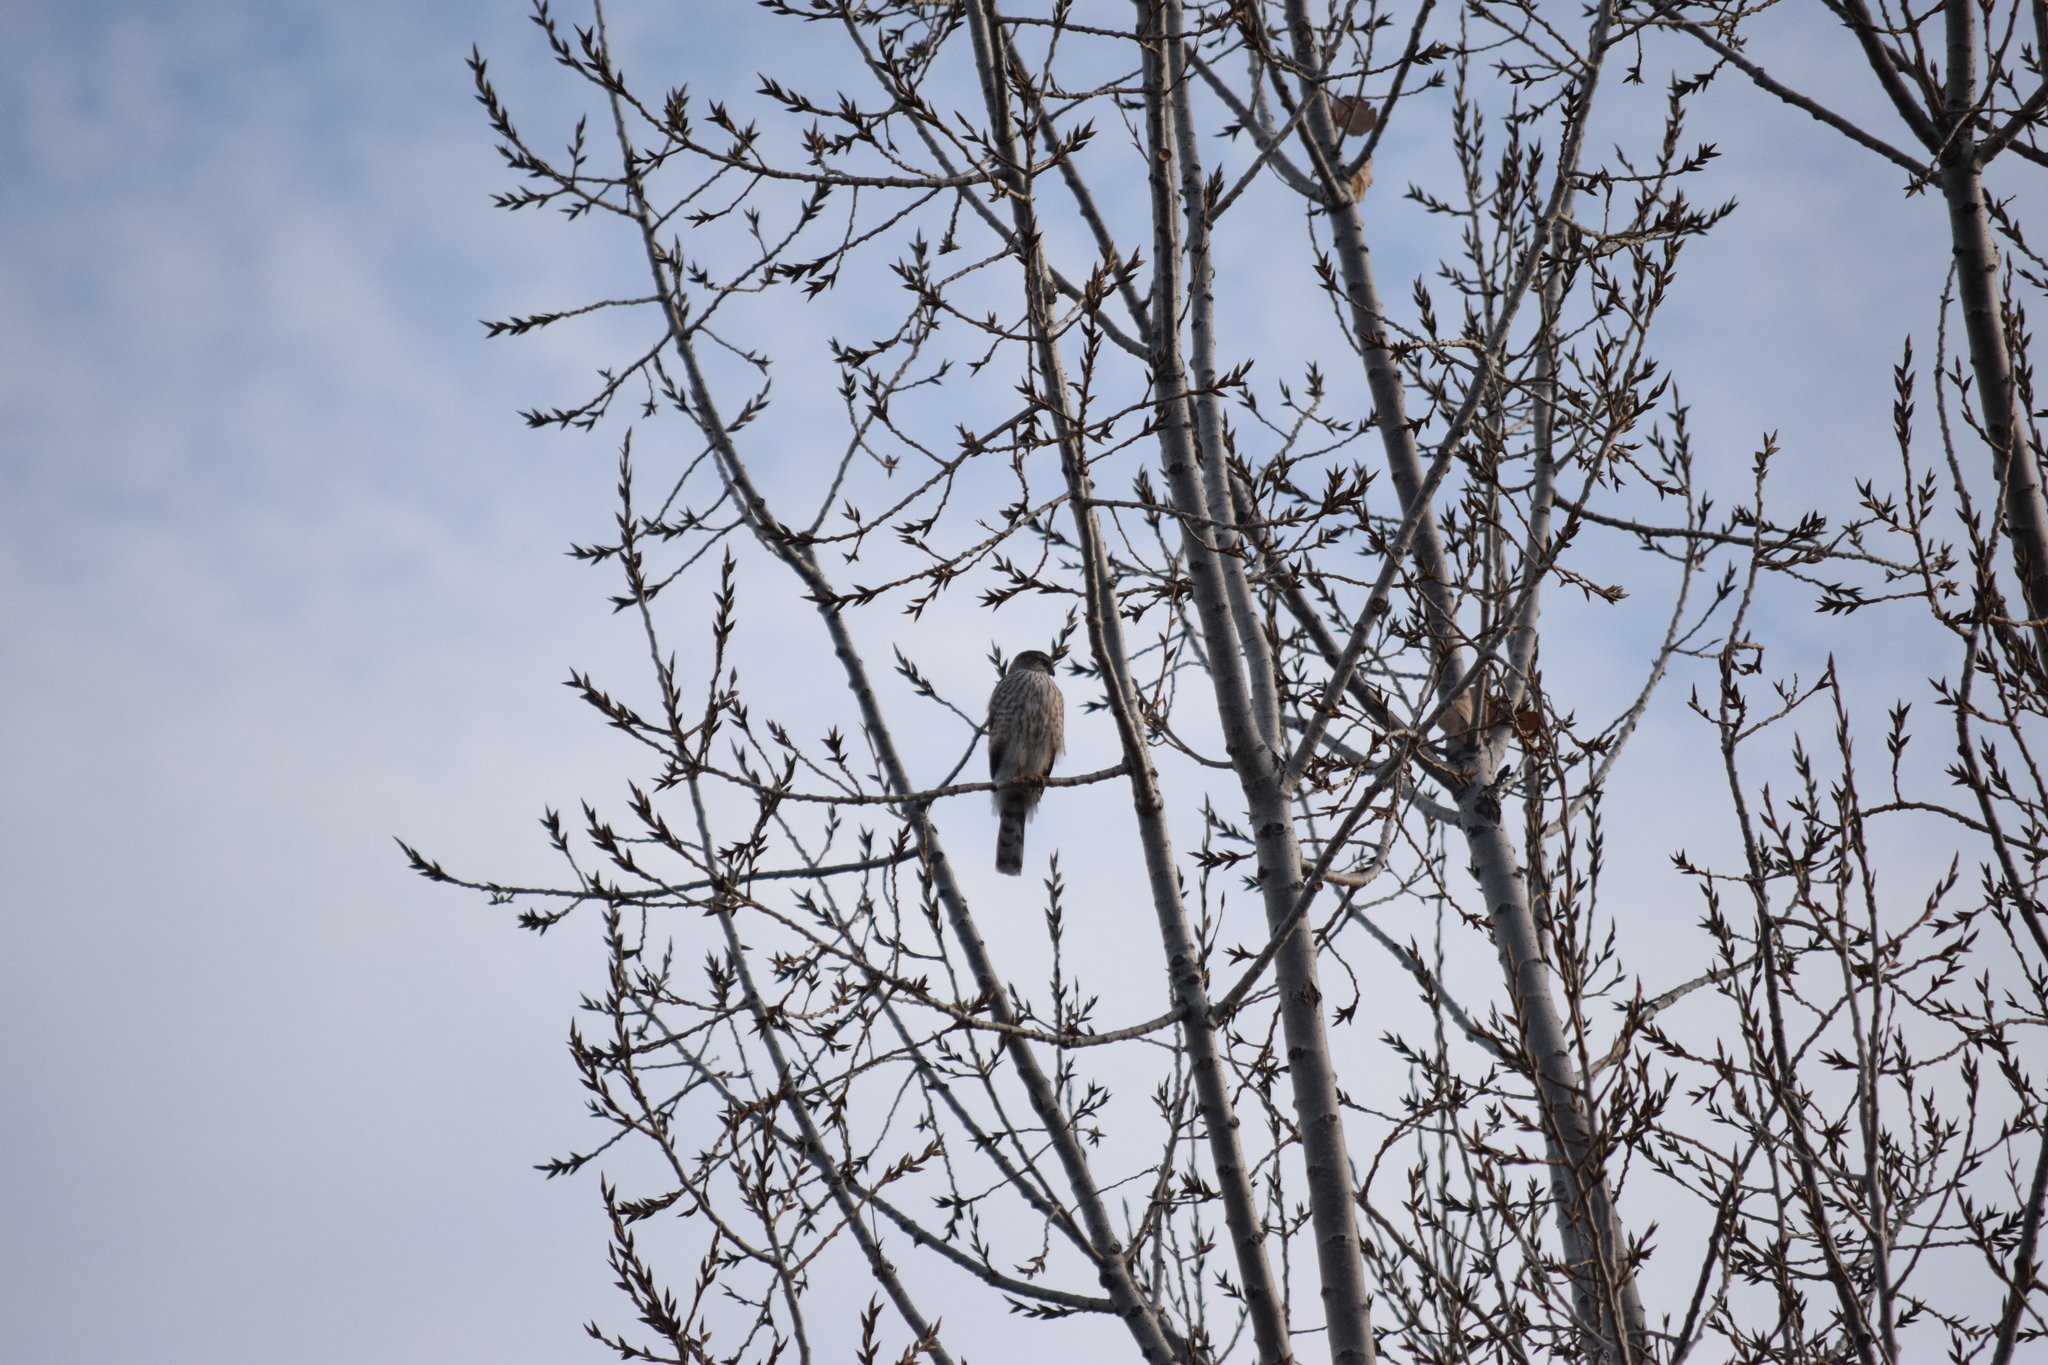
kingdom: Animalia
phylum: Chordata
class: Aves
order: Accipitriformes
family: Accipitridae
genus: Accipiter
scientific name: Accipiter striatus
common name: Sharp-shinned hawk
